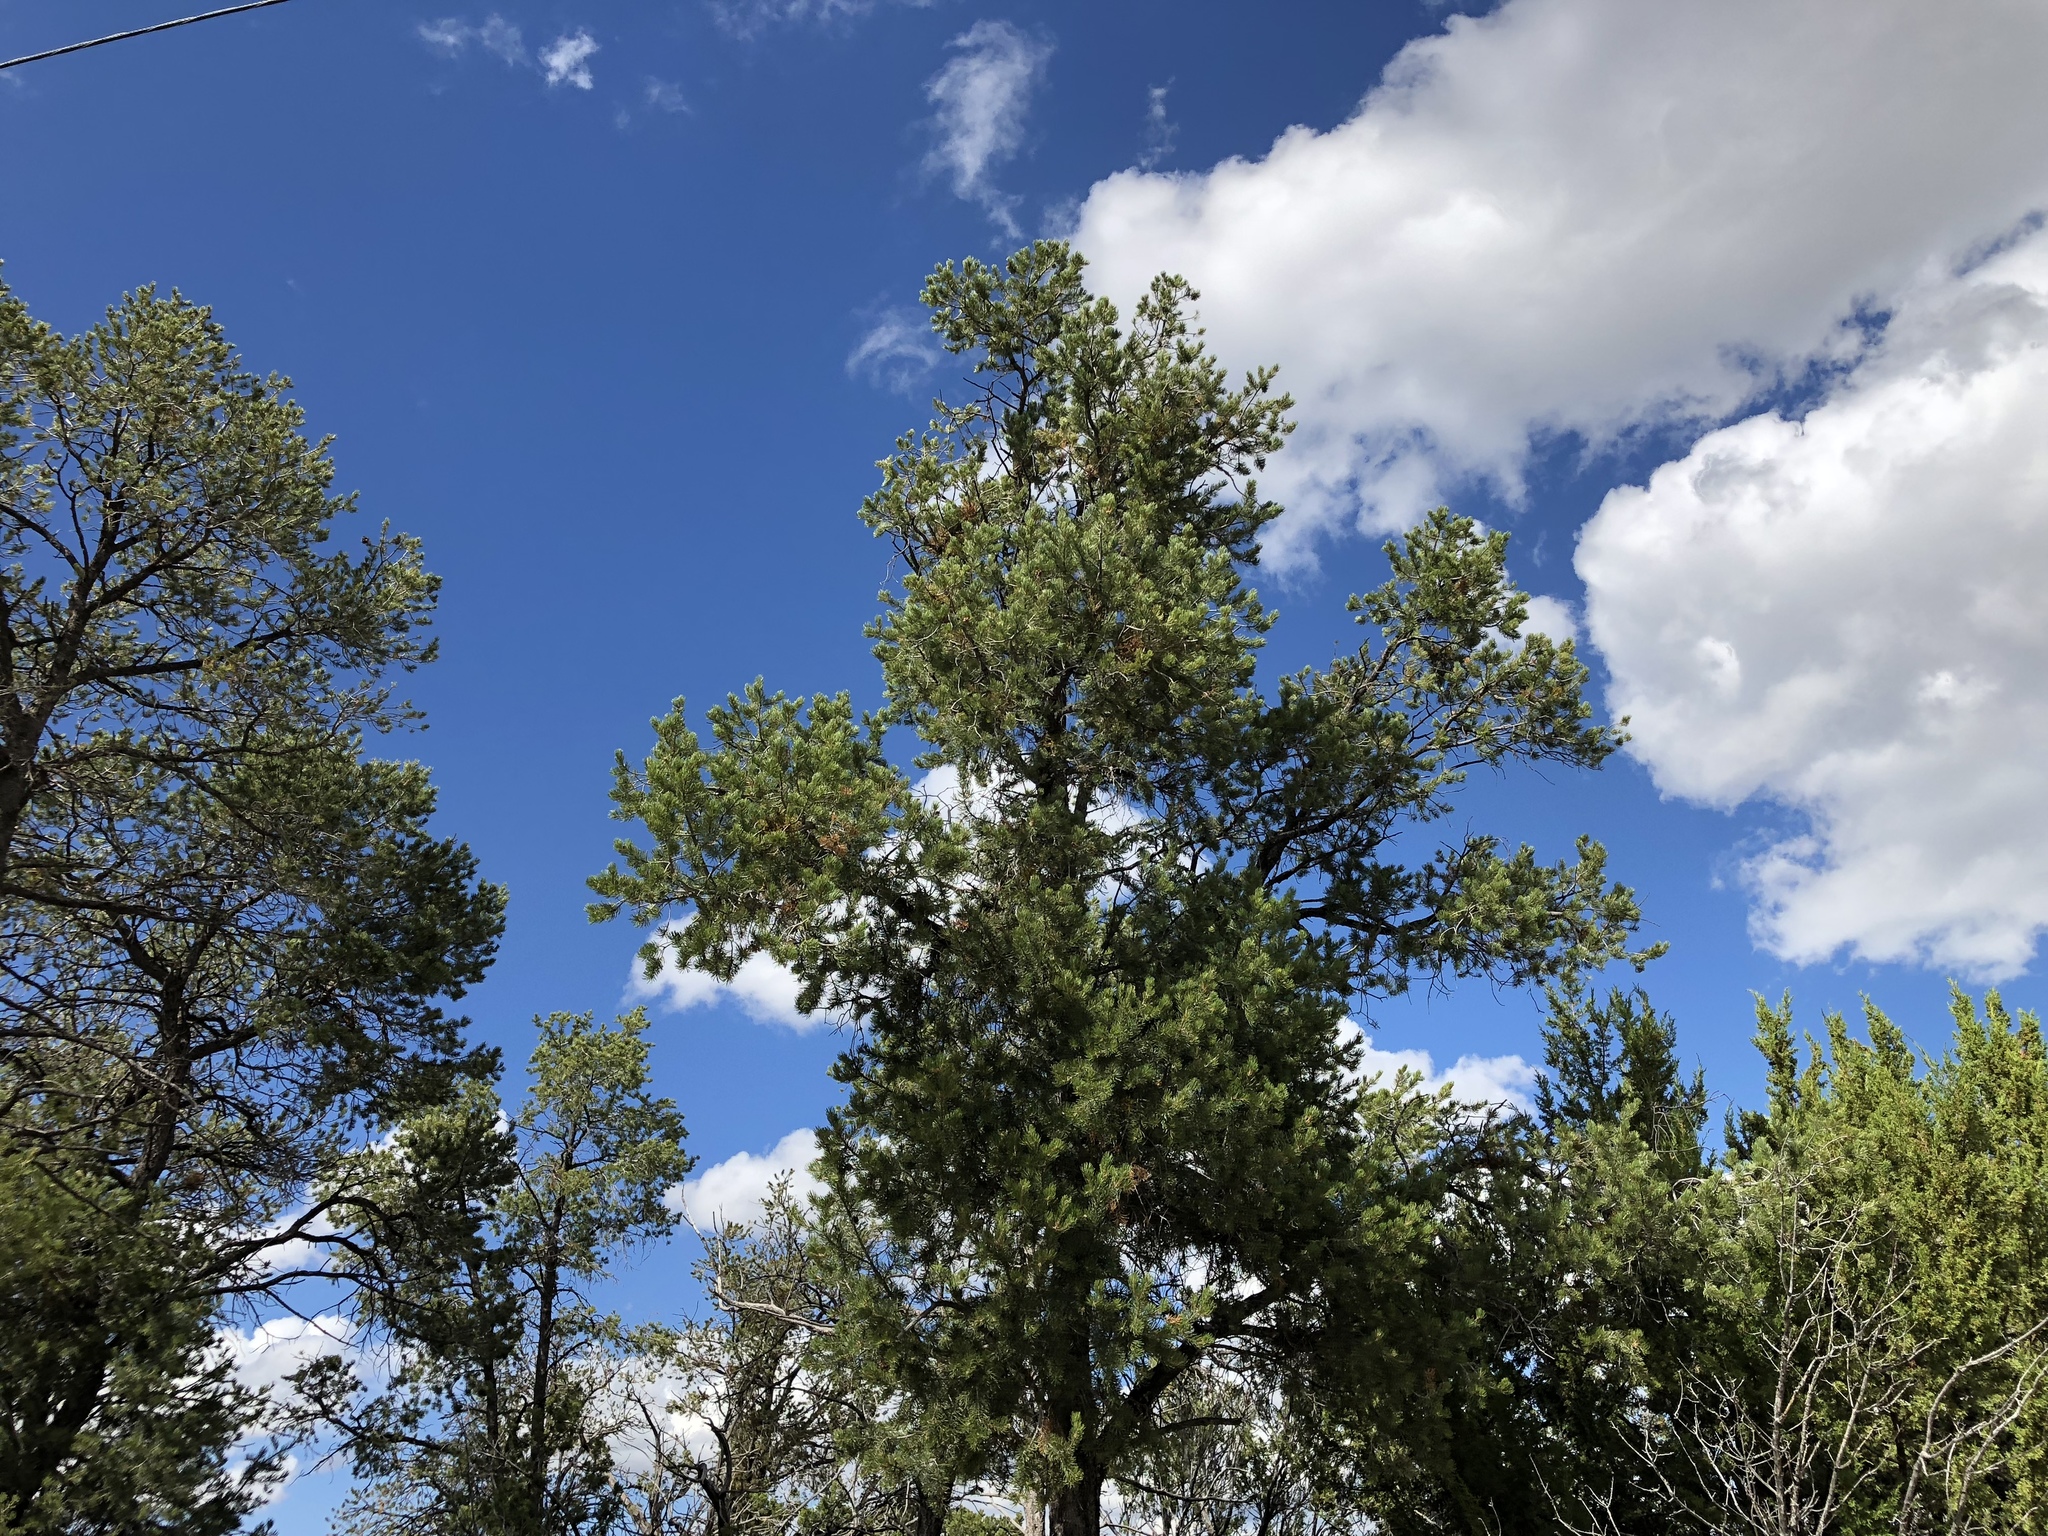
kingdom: Plantae
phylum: Tracheophyta
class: Pinopsida
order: Pinales
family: Pinaceae
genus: Pinus
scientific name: Pinus edulis
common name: Colorado pinyon
